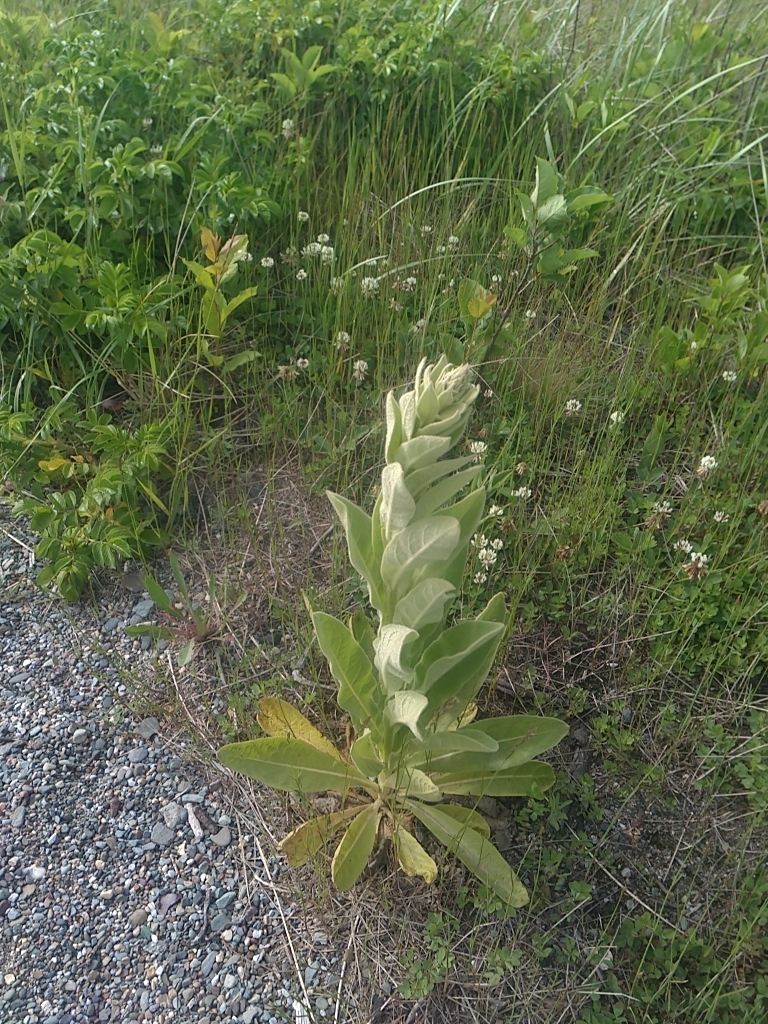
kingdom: Plantae
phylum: Tracheophyta
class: Magnoliopsida
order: Lamiales
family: Scrophulariaceae
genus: Verbascum
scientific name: Verbascum thapsus
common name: Common mullein
